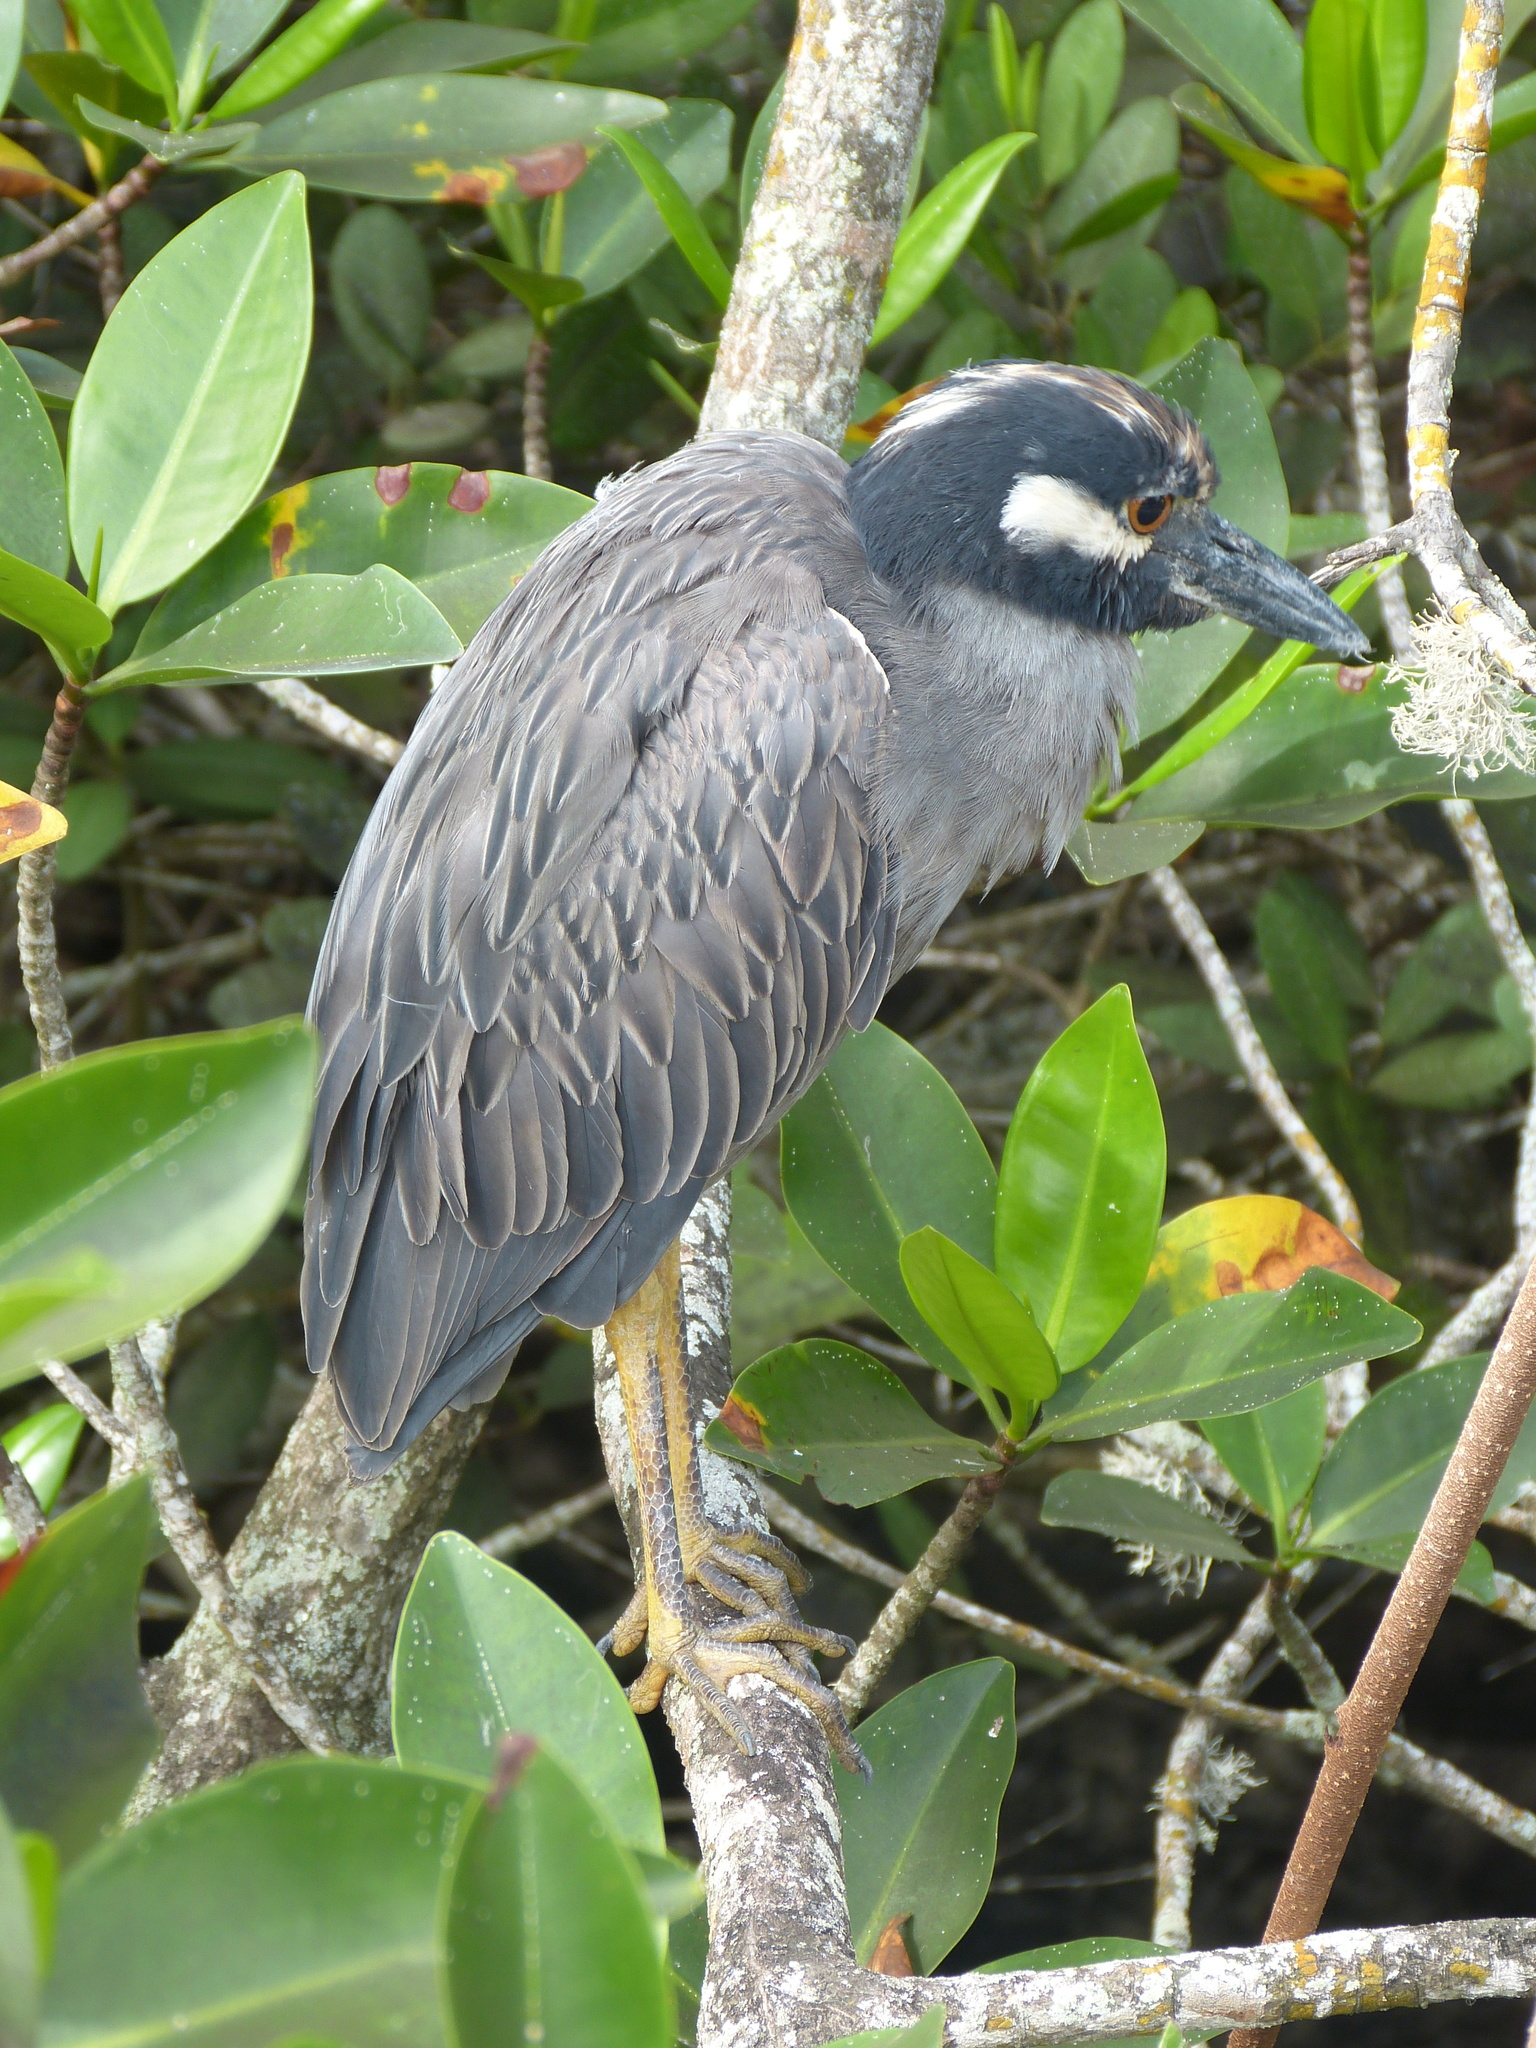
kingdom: Animalia
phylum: Chordata
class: Aves
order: Pelecaniformes
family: Ardeidae
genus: Nyctanassa
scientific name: Nyctanassa violacea
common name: Yellow-crowned night heron
